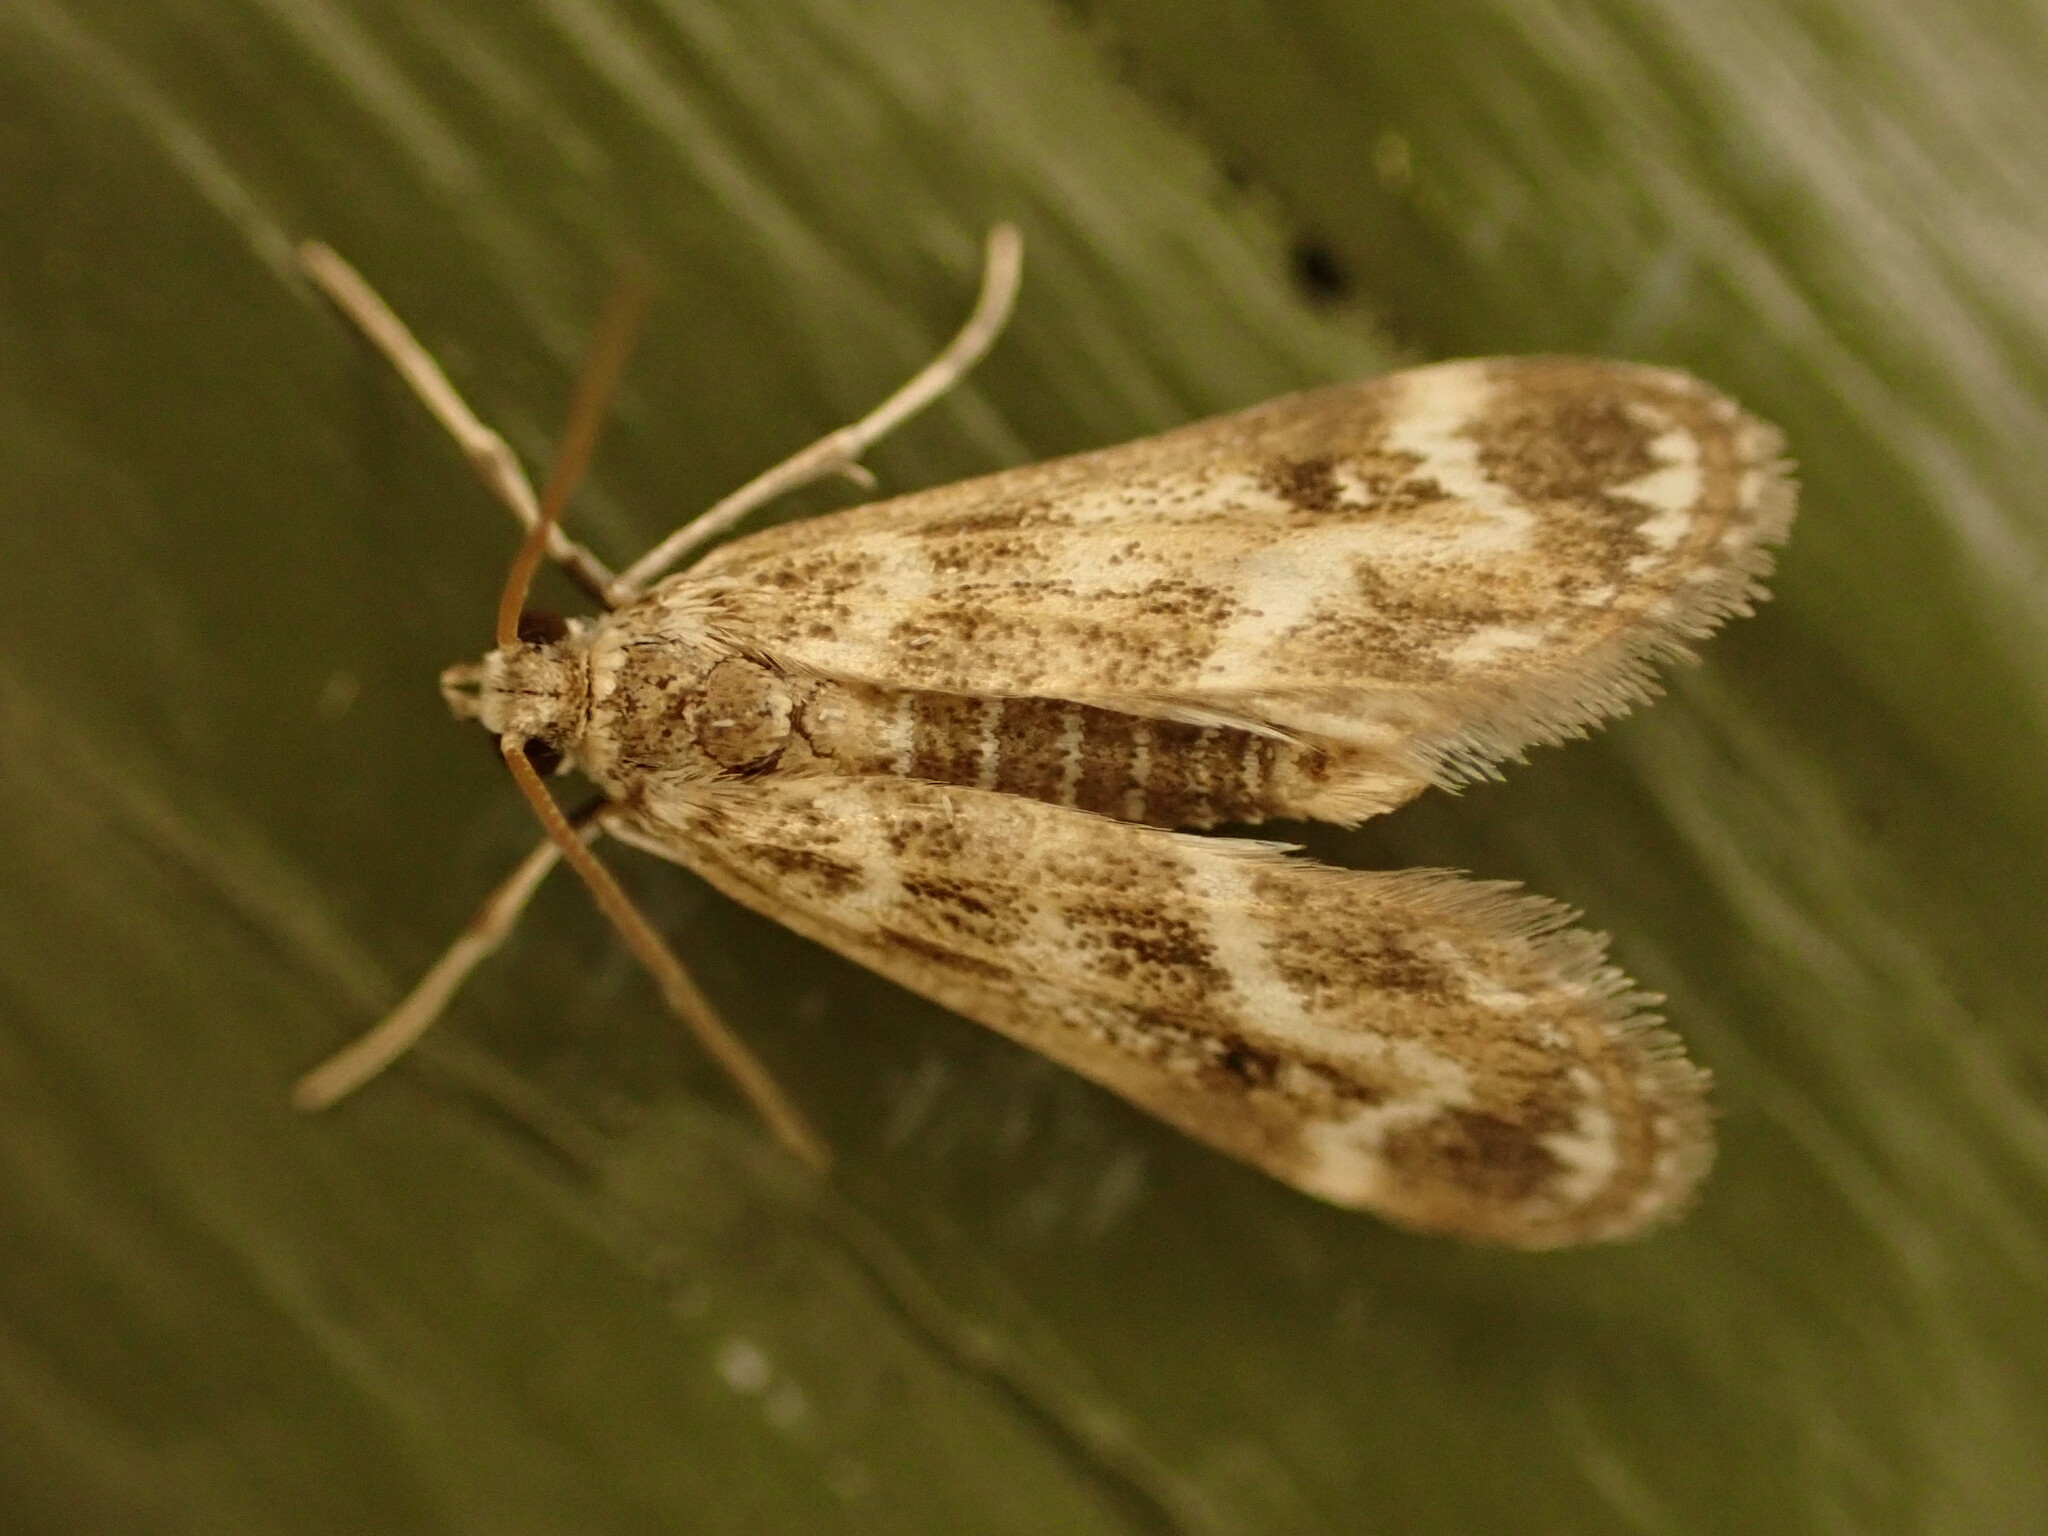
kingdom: Animalia
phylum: Arthropoda
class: Insecta
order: Lepidoptera
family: Crambidae
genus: Hygraula
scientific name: Hygraula nitens
